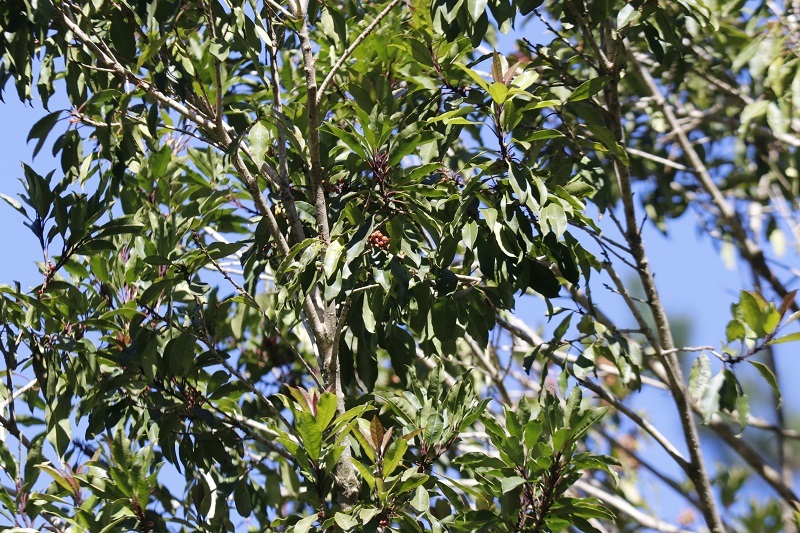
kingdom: Plantae
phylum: Tracheophyta
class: Magnoliopsida
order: Aquifoliales
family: Aquifoliaceae
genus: Ilex
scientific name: Ilex mitis
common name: African holly
